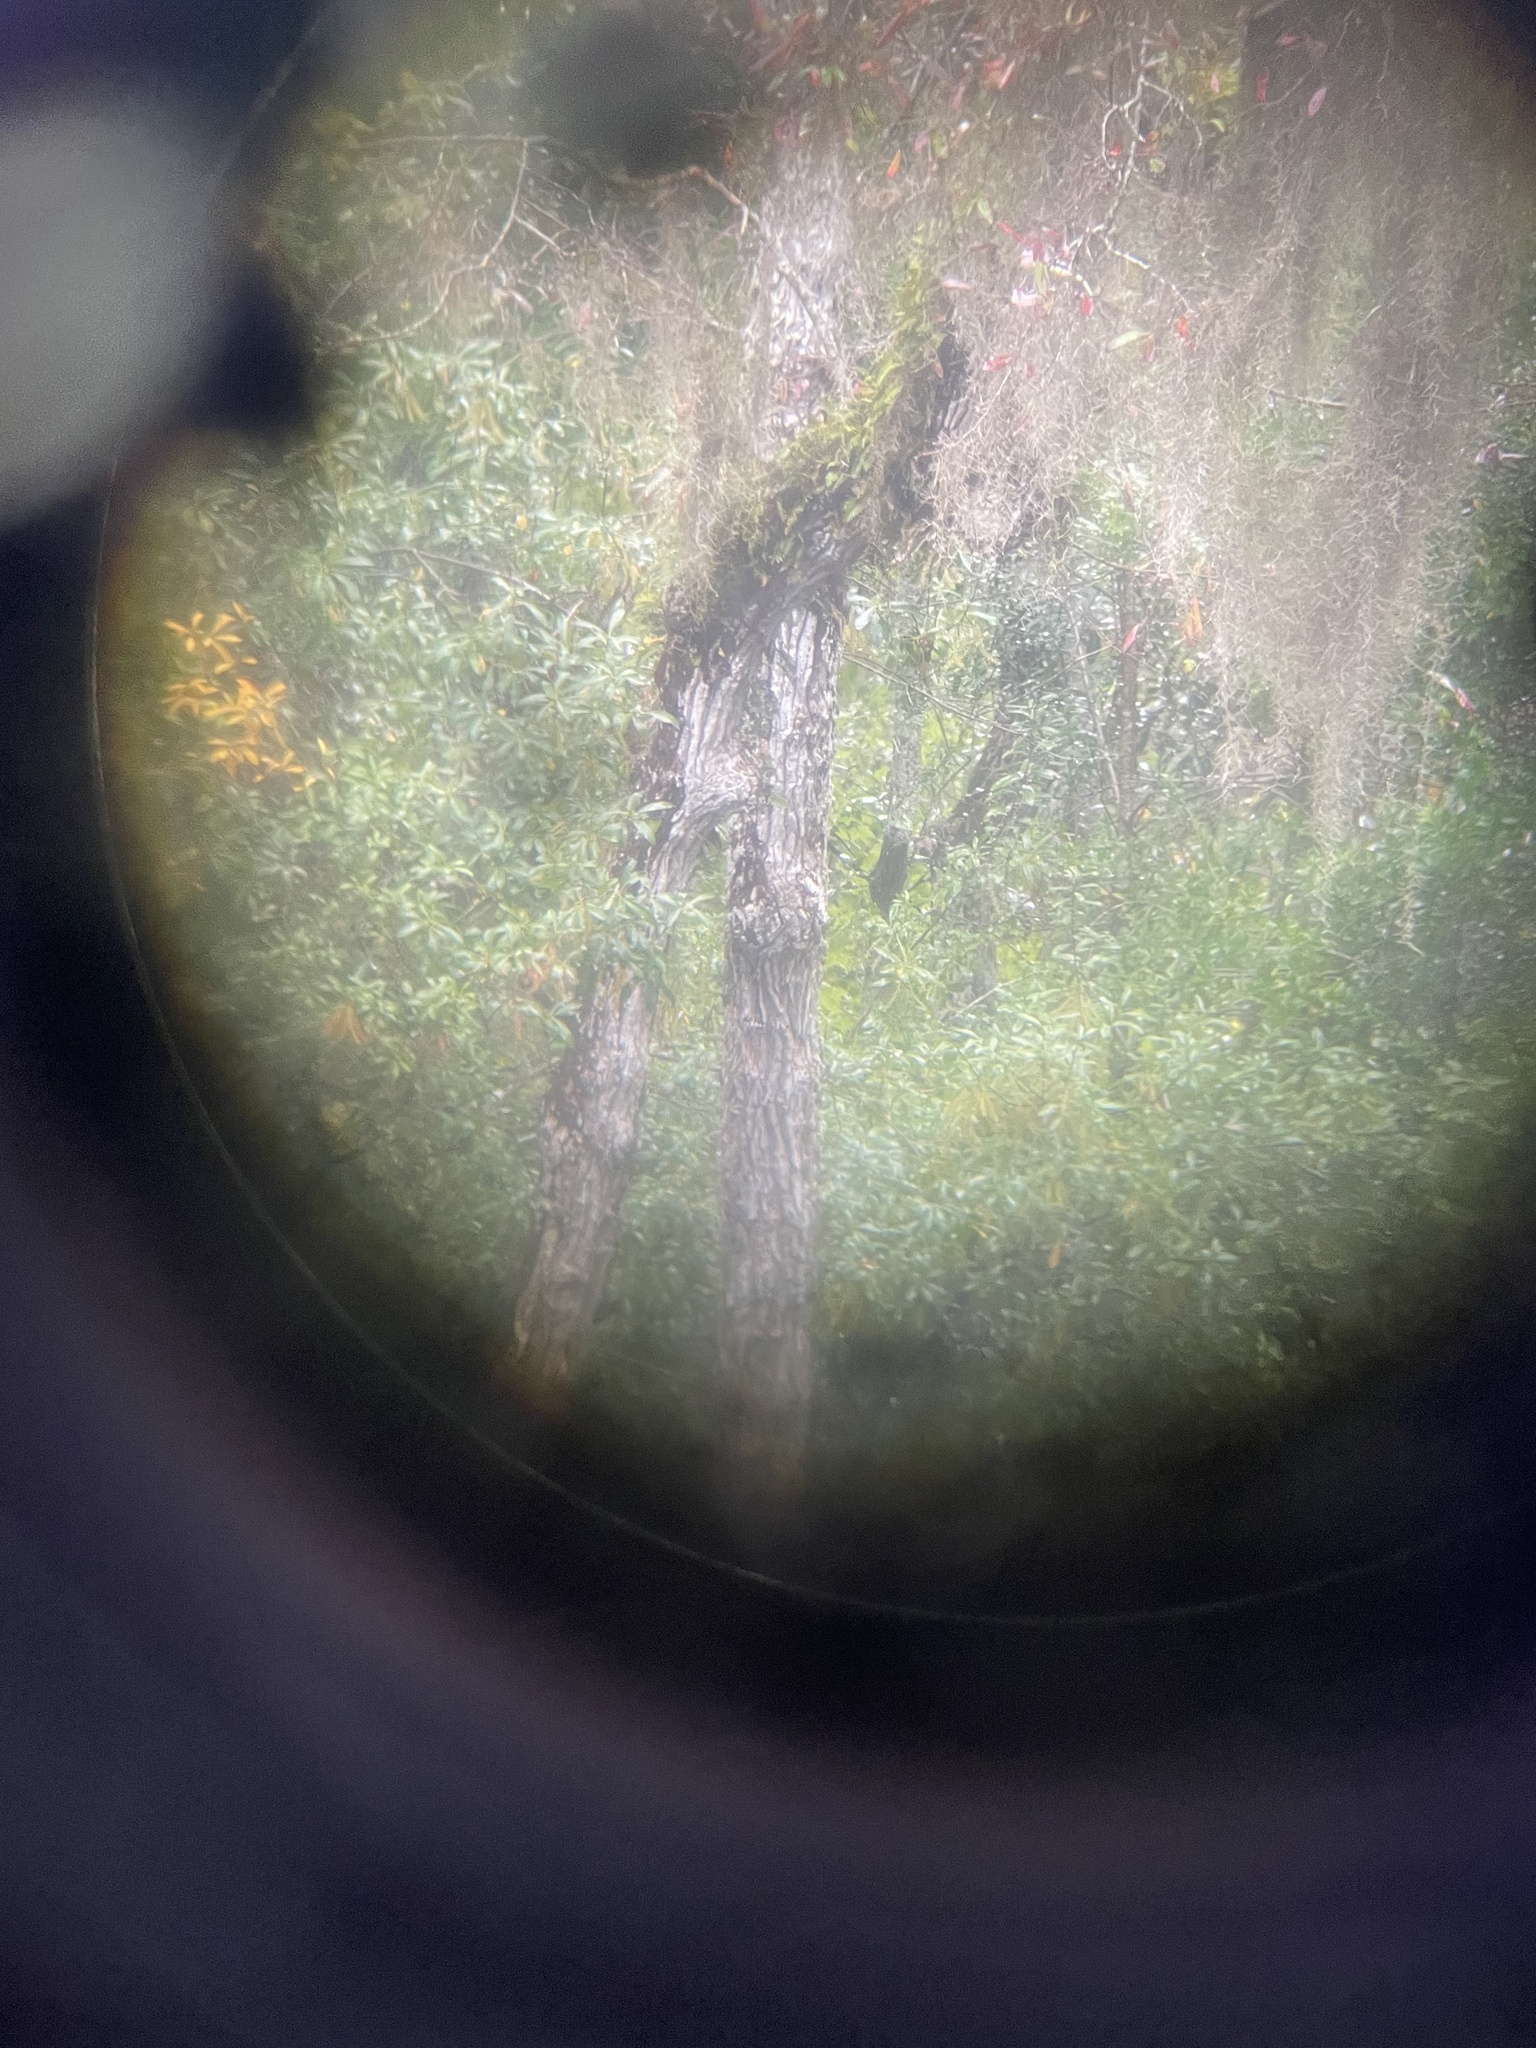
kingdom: Plantae
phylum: Tracheophyta
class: Liliopsida
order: Asparagales
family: Orchidaceae
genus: Epidendrum
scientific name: Epidendrum conopseum
